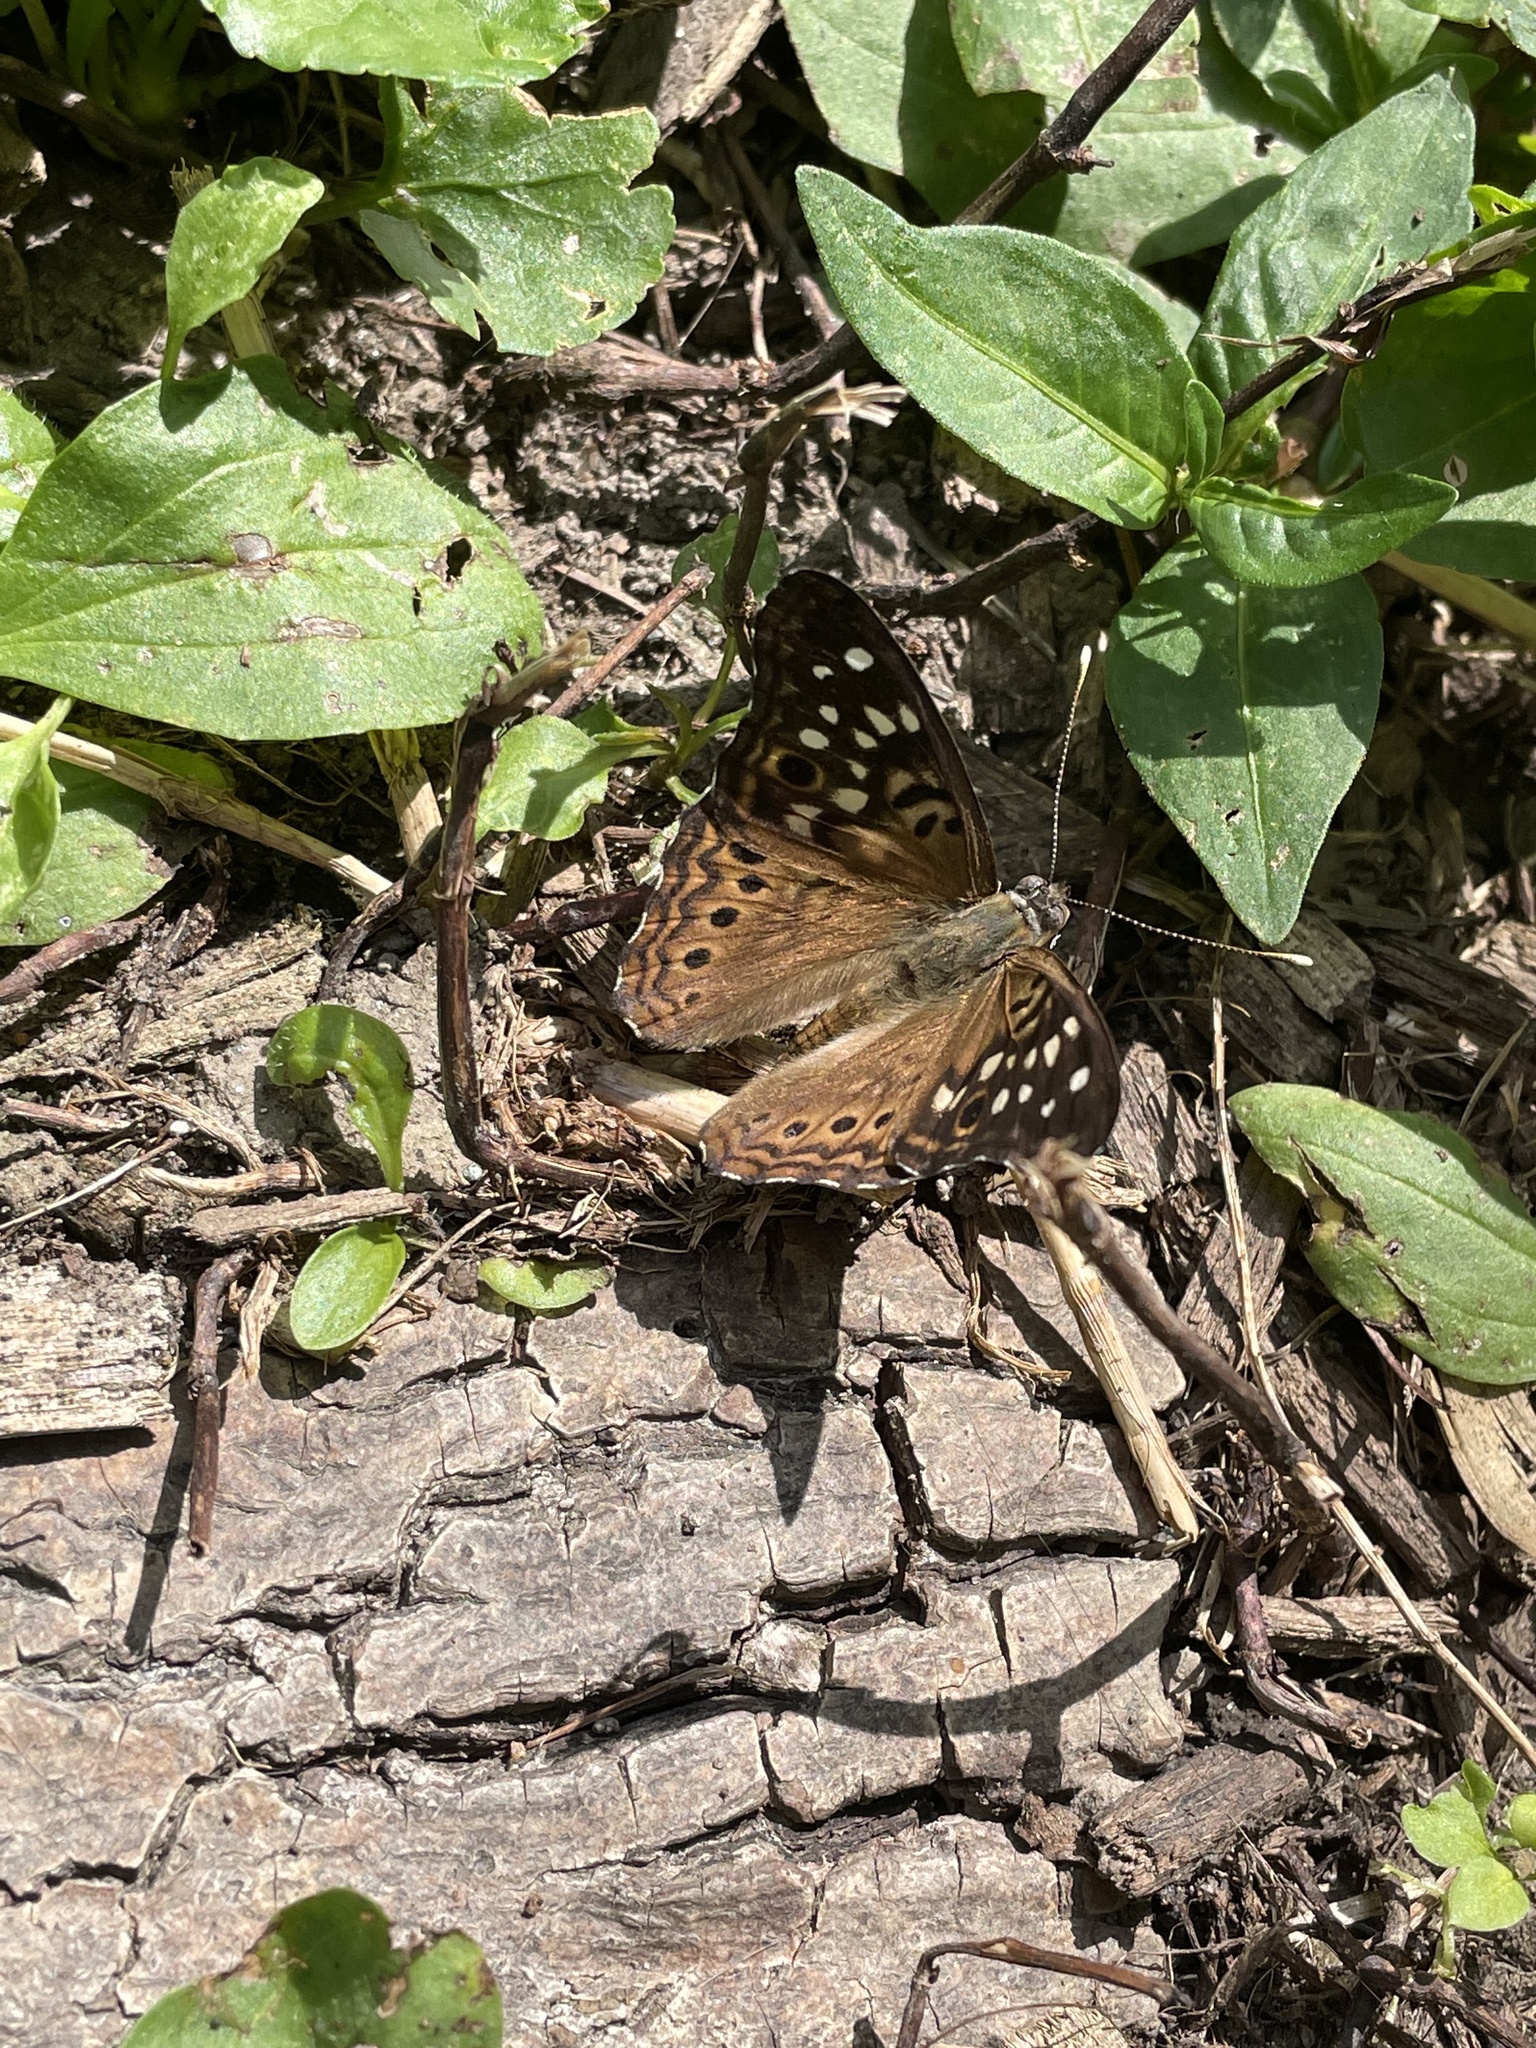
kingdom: Animalia
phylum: Arthropoda
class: Insecta
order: Lepidoptera
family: Nymphalidae
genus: Asterocampa
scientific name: Asterocampa celtis
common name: Hackberry emperor
